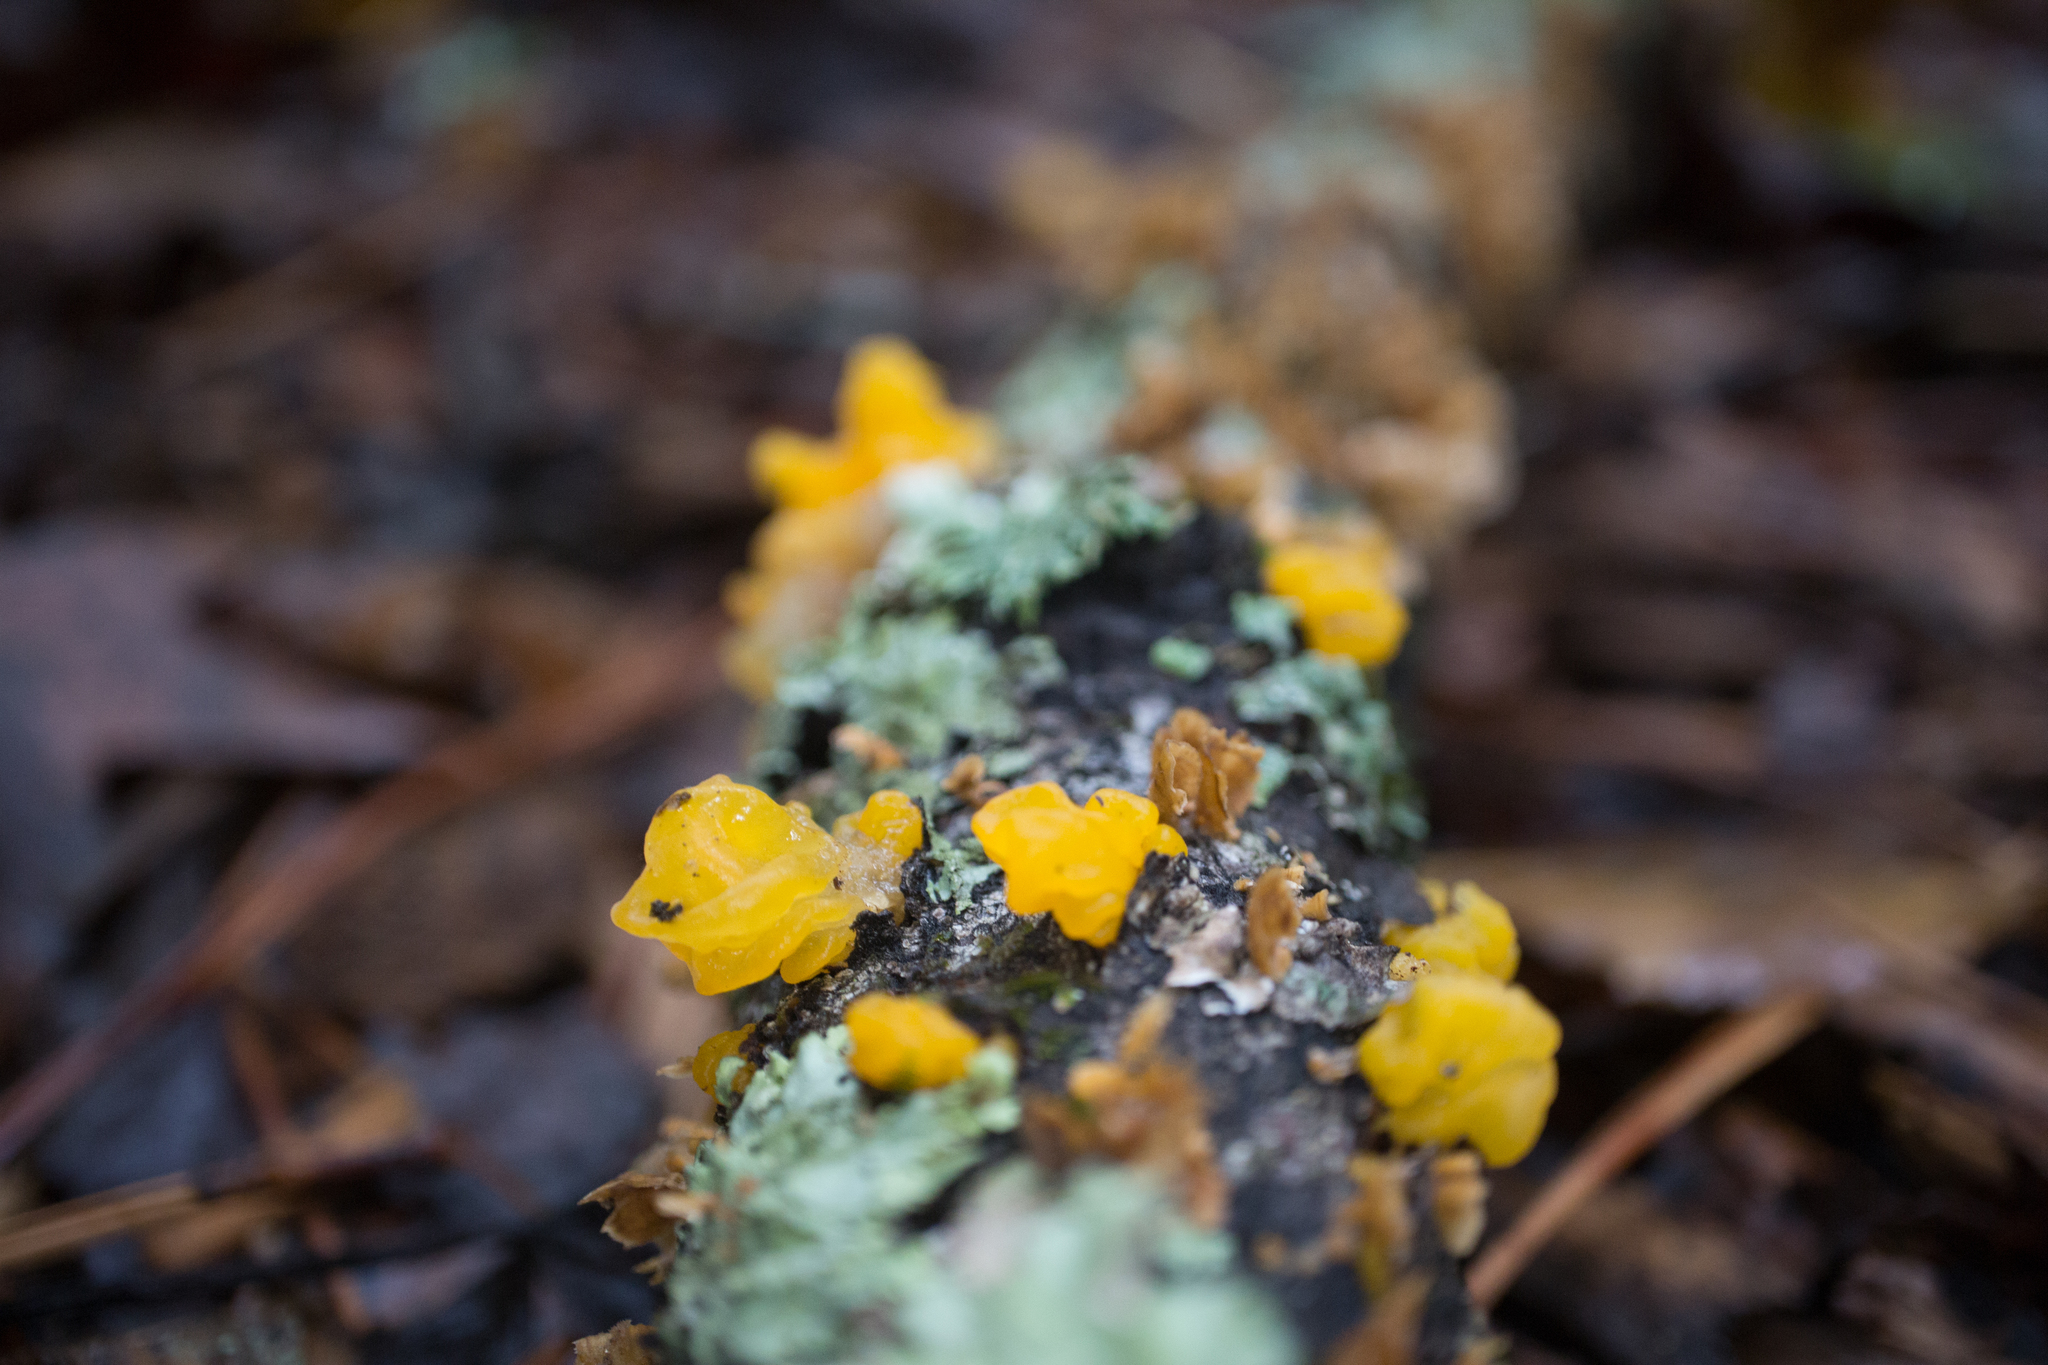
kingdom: Fungi
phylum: Basidiomycota
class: Tremellomycetes
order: Tremellales
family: Tremellaceae
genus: Tremella
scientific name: Tremella mesenterica
